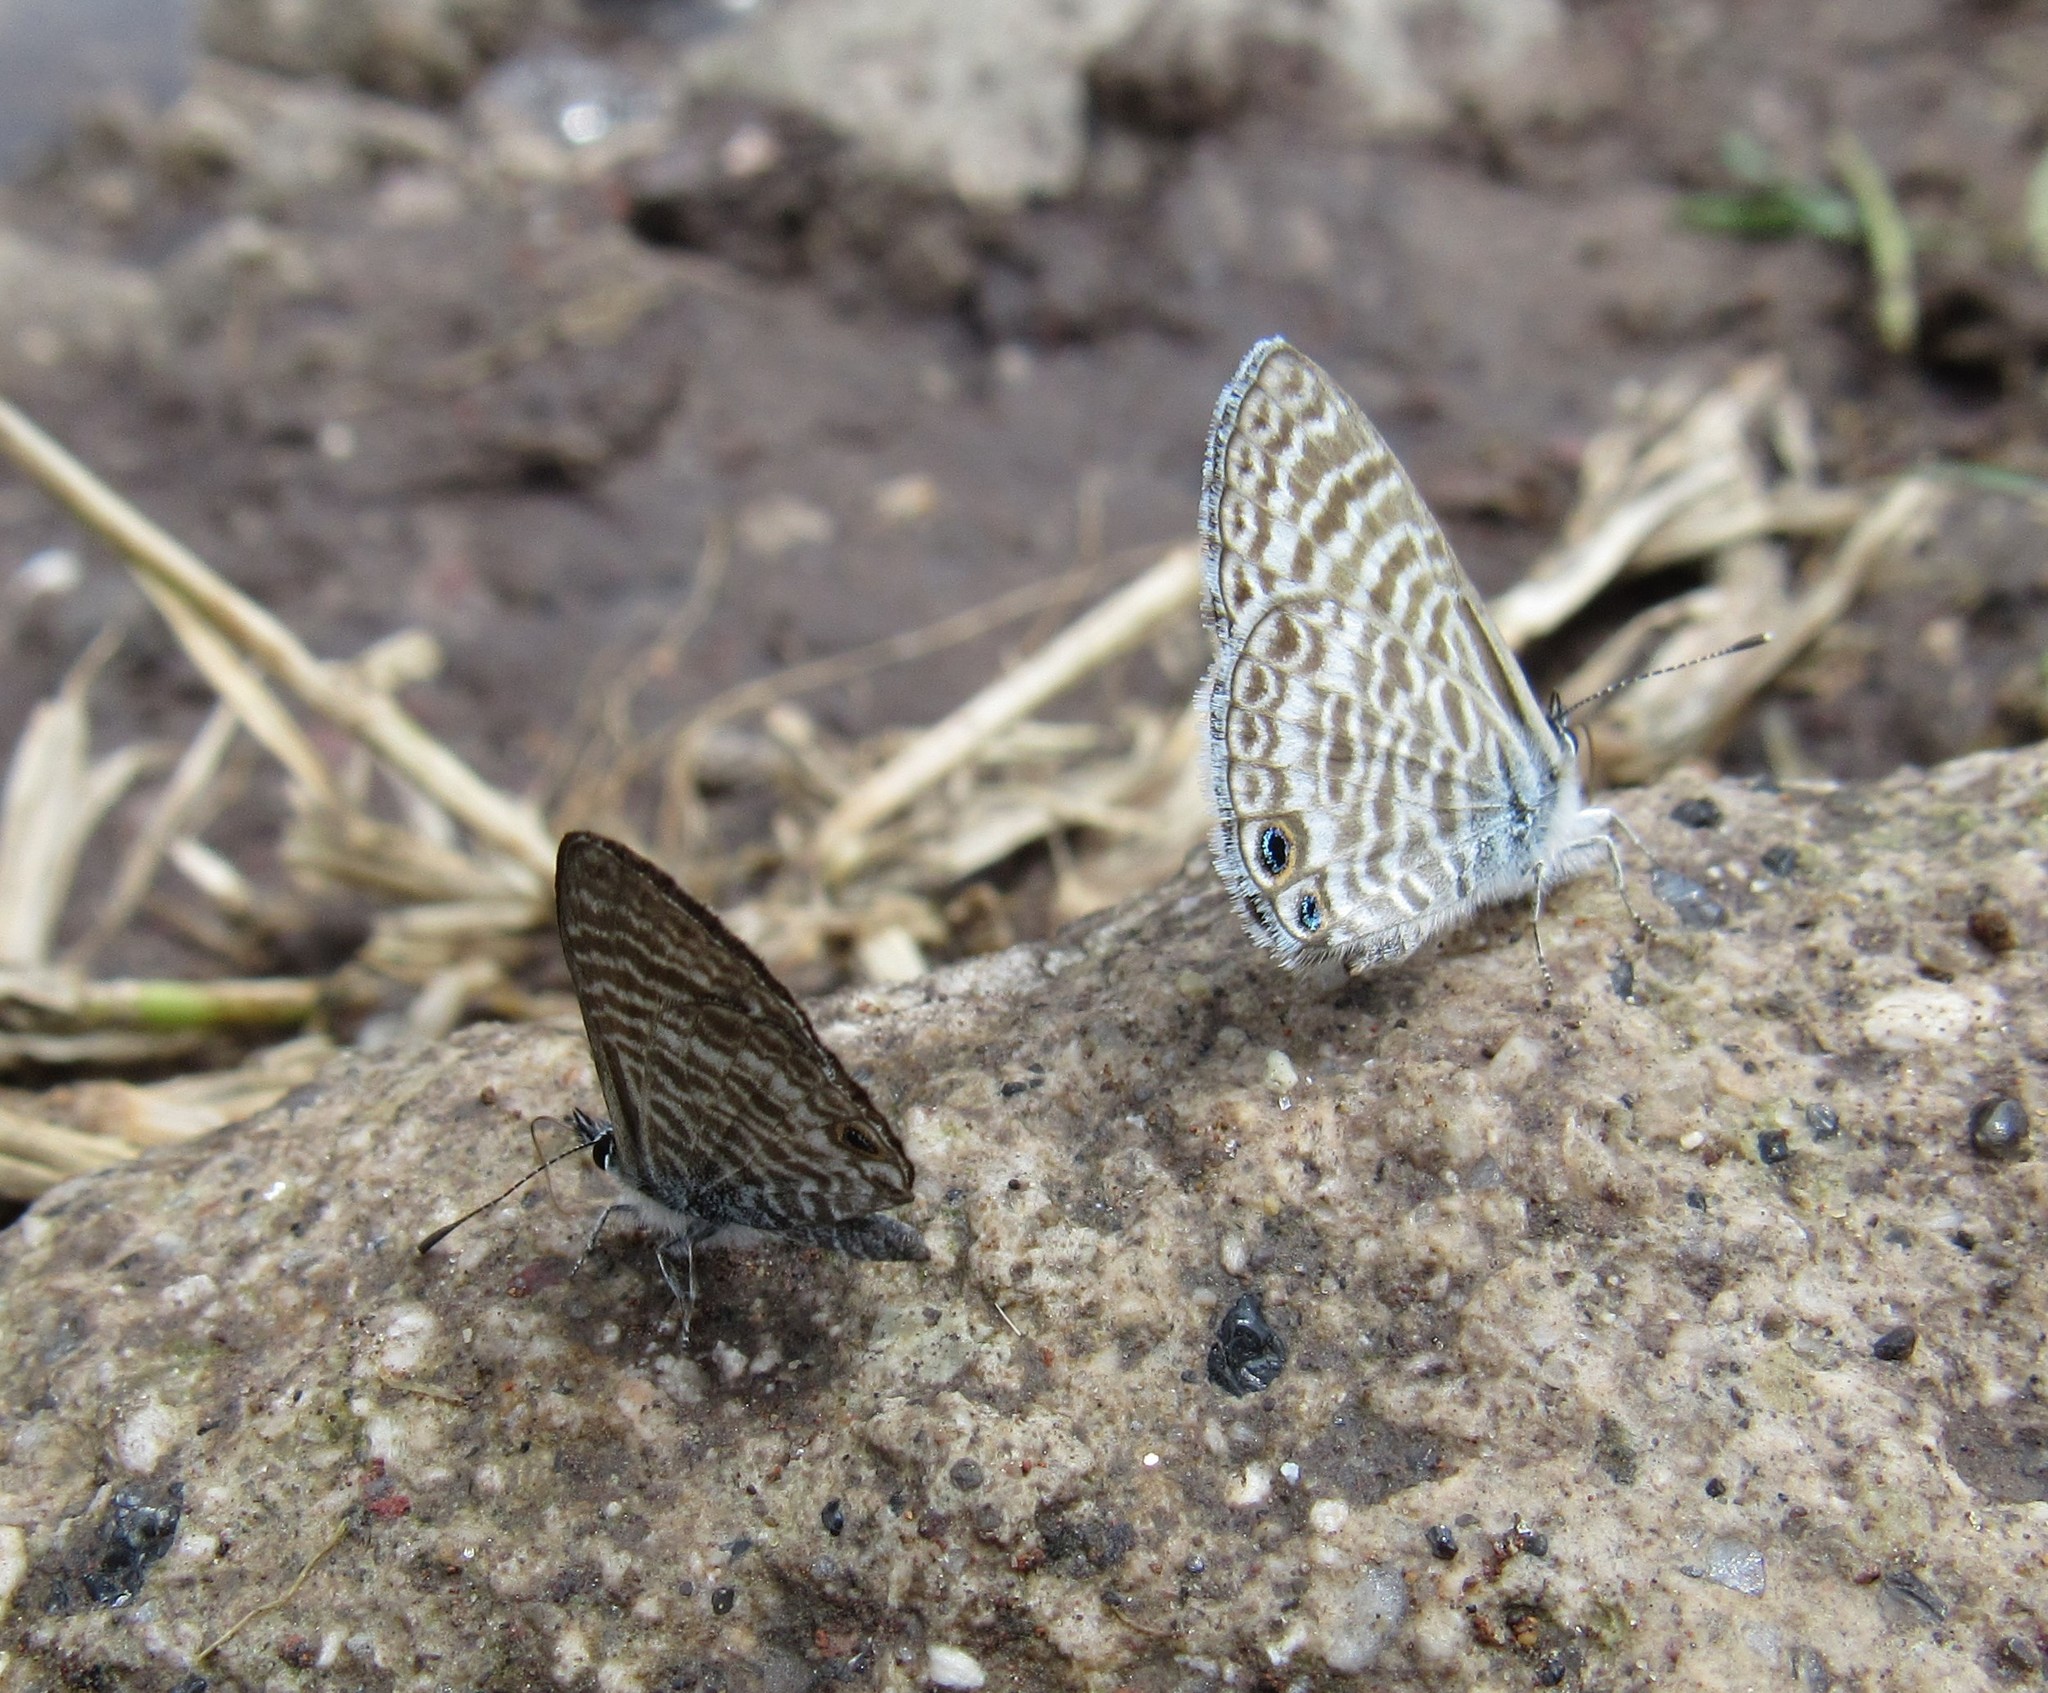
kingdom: Animalia
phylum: Arthropoda
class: Insecta
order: Lepidoptera
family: Lycaenidae
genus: Leptotes
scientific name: Leptotes marina
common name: Marine blue
